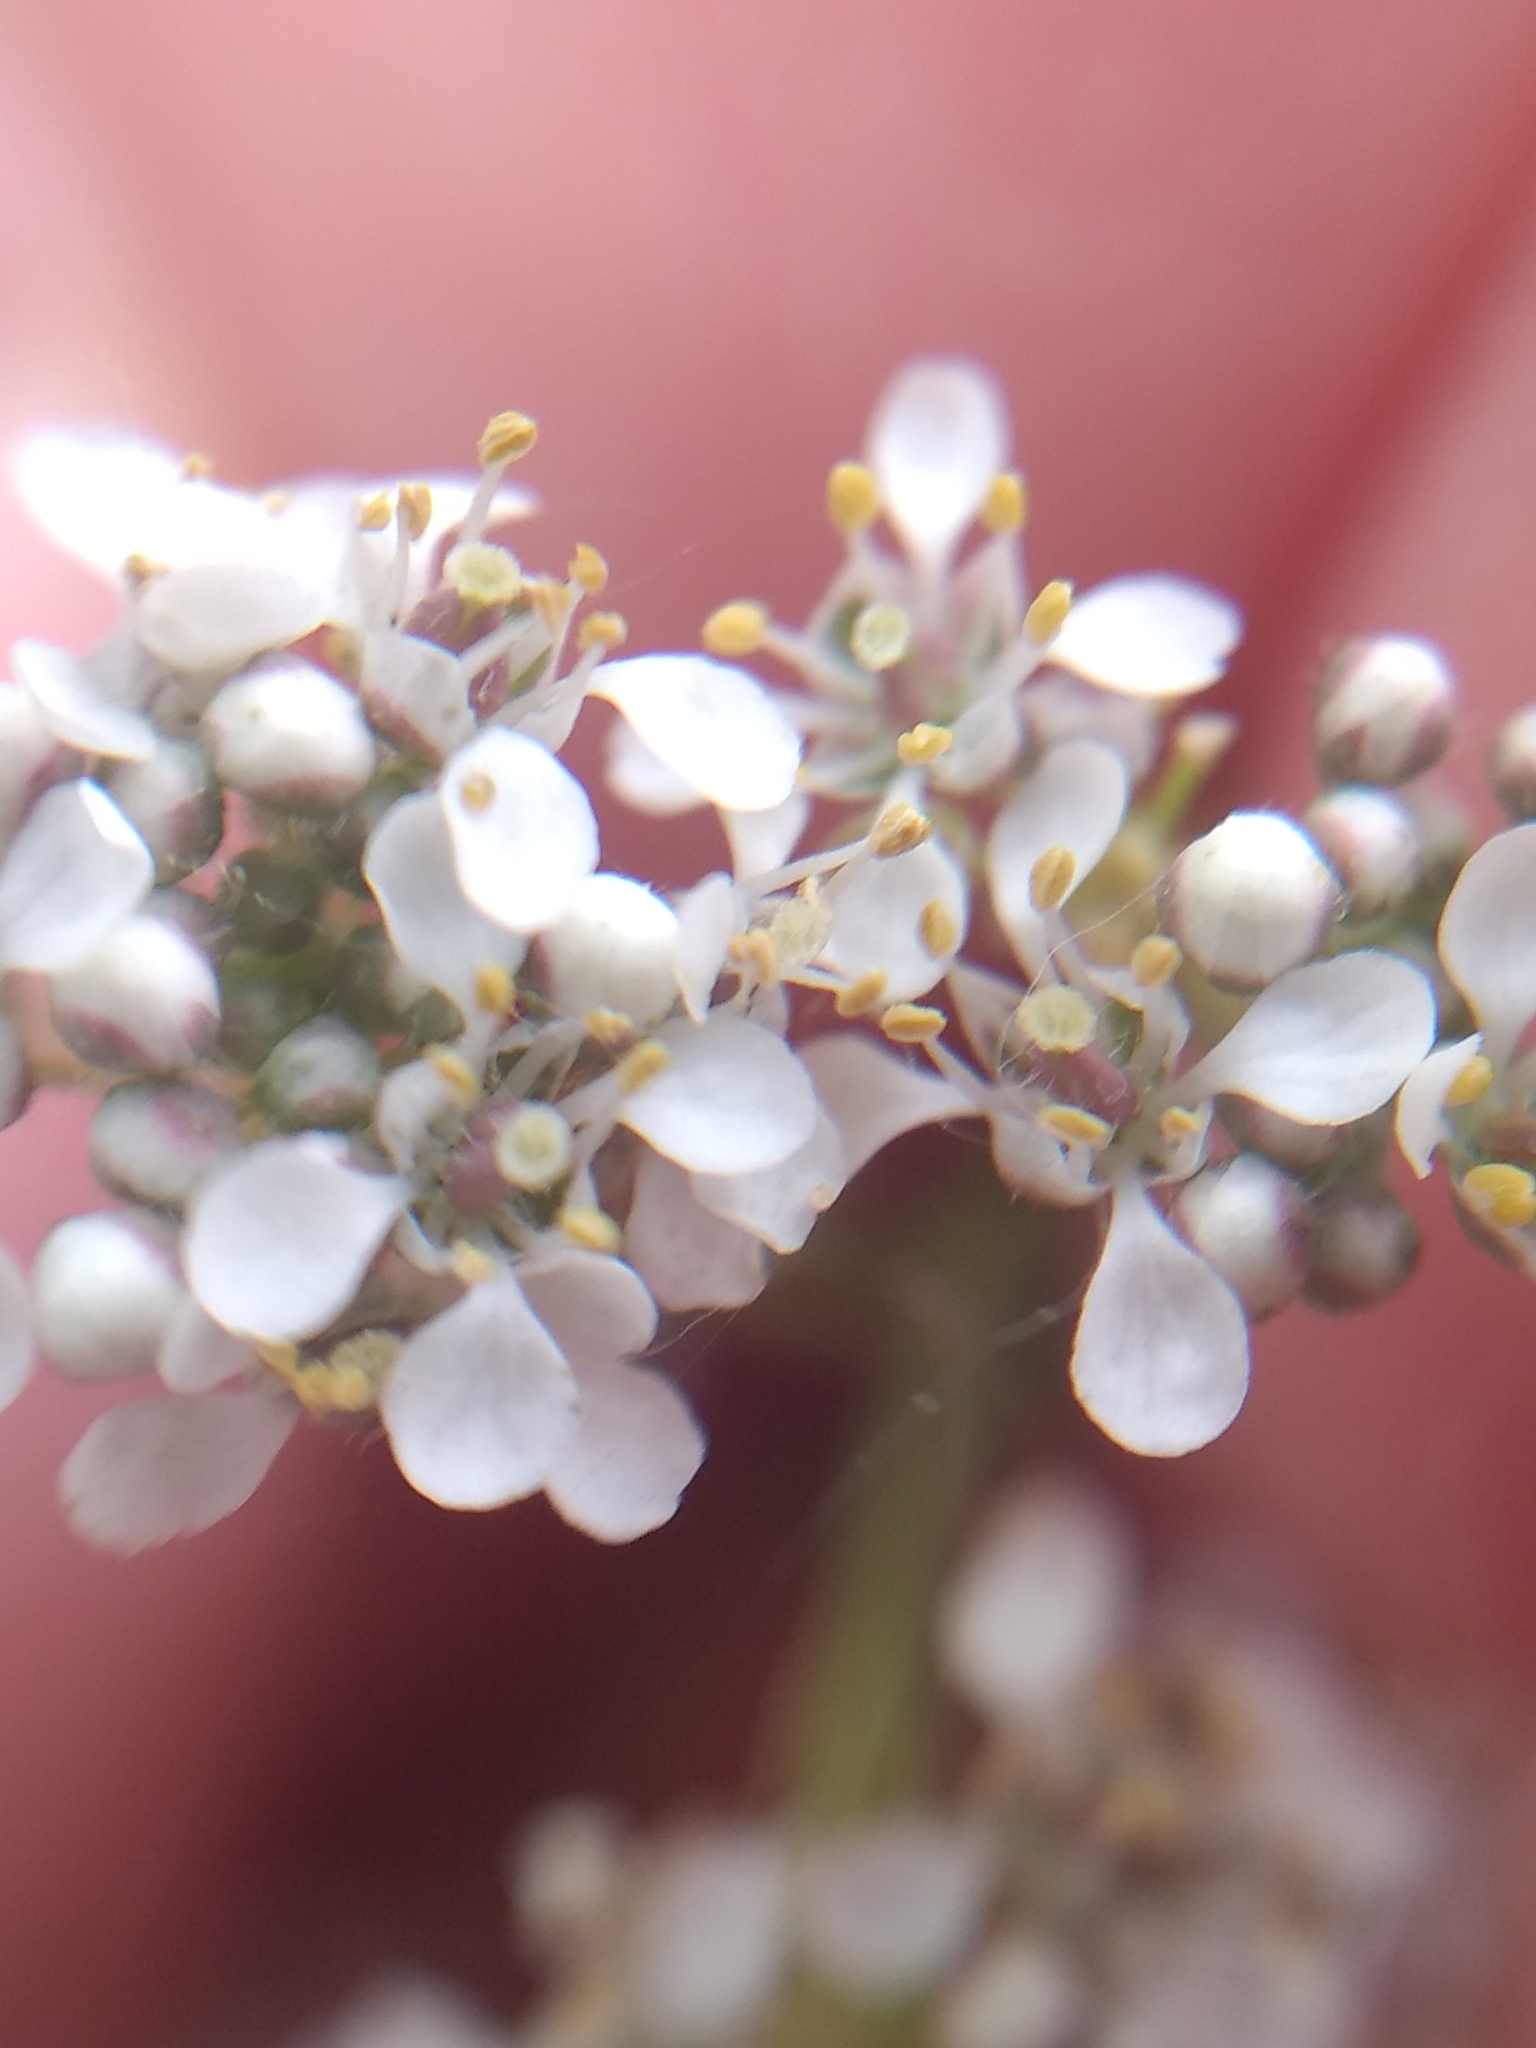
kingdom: Plantae
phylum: Tracheophyta
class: Magnoliopsida
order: Brassicales
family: Brassicaceae
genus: Lepidium
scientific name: Lepidium latifolium
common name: Dittander
